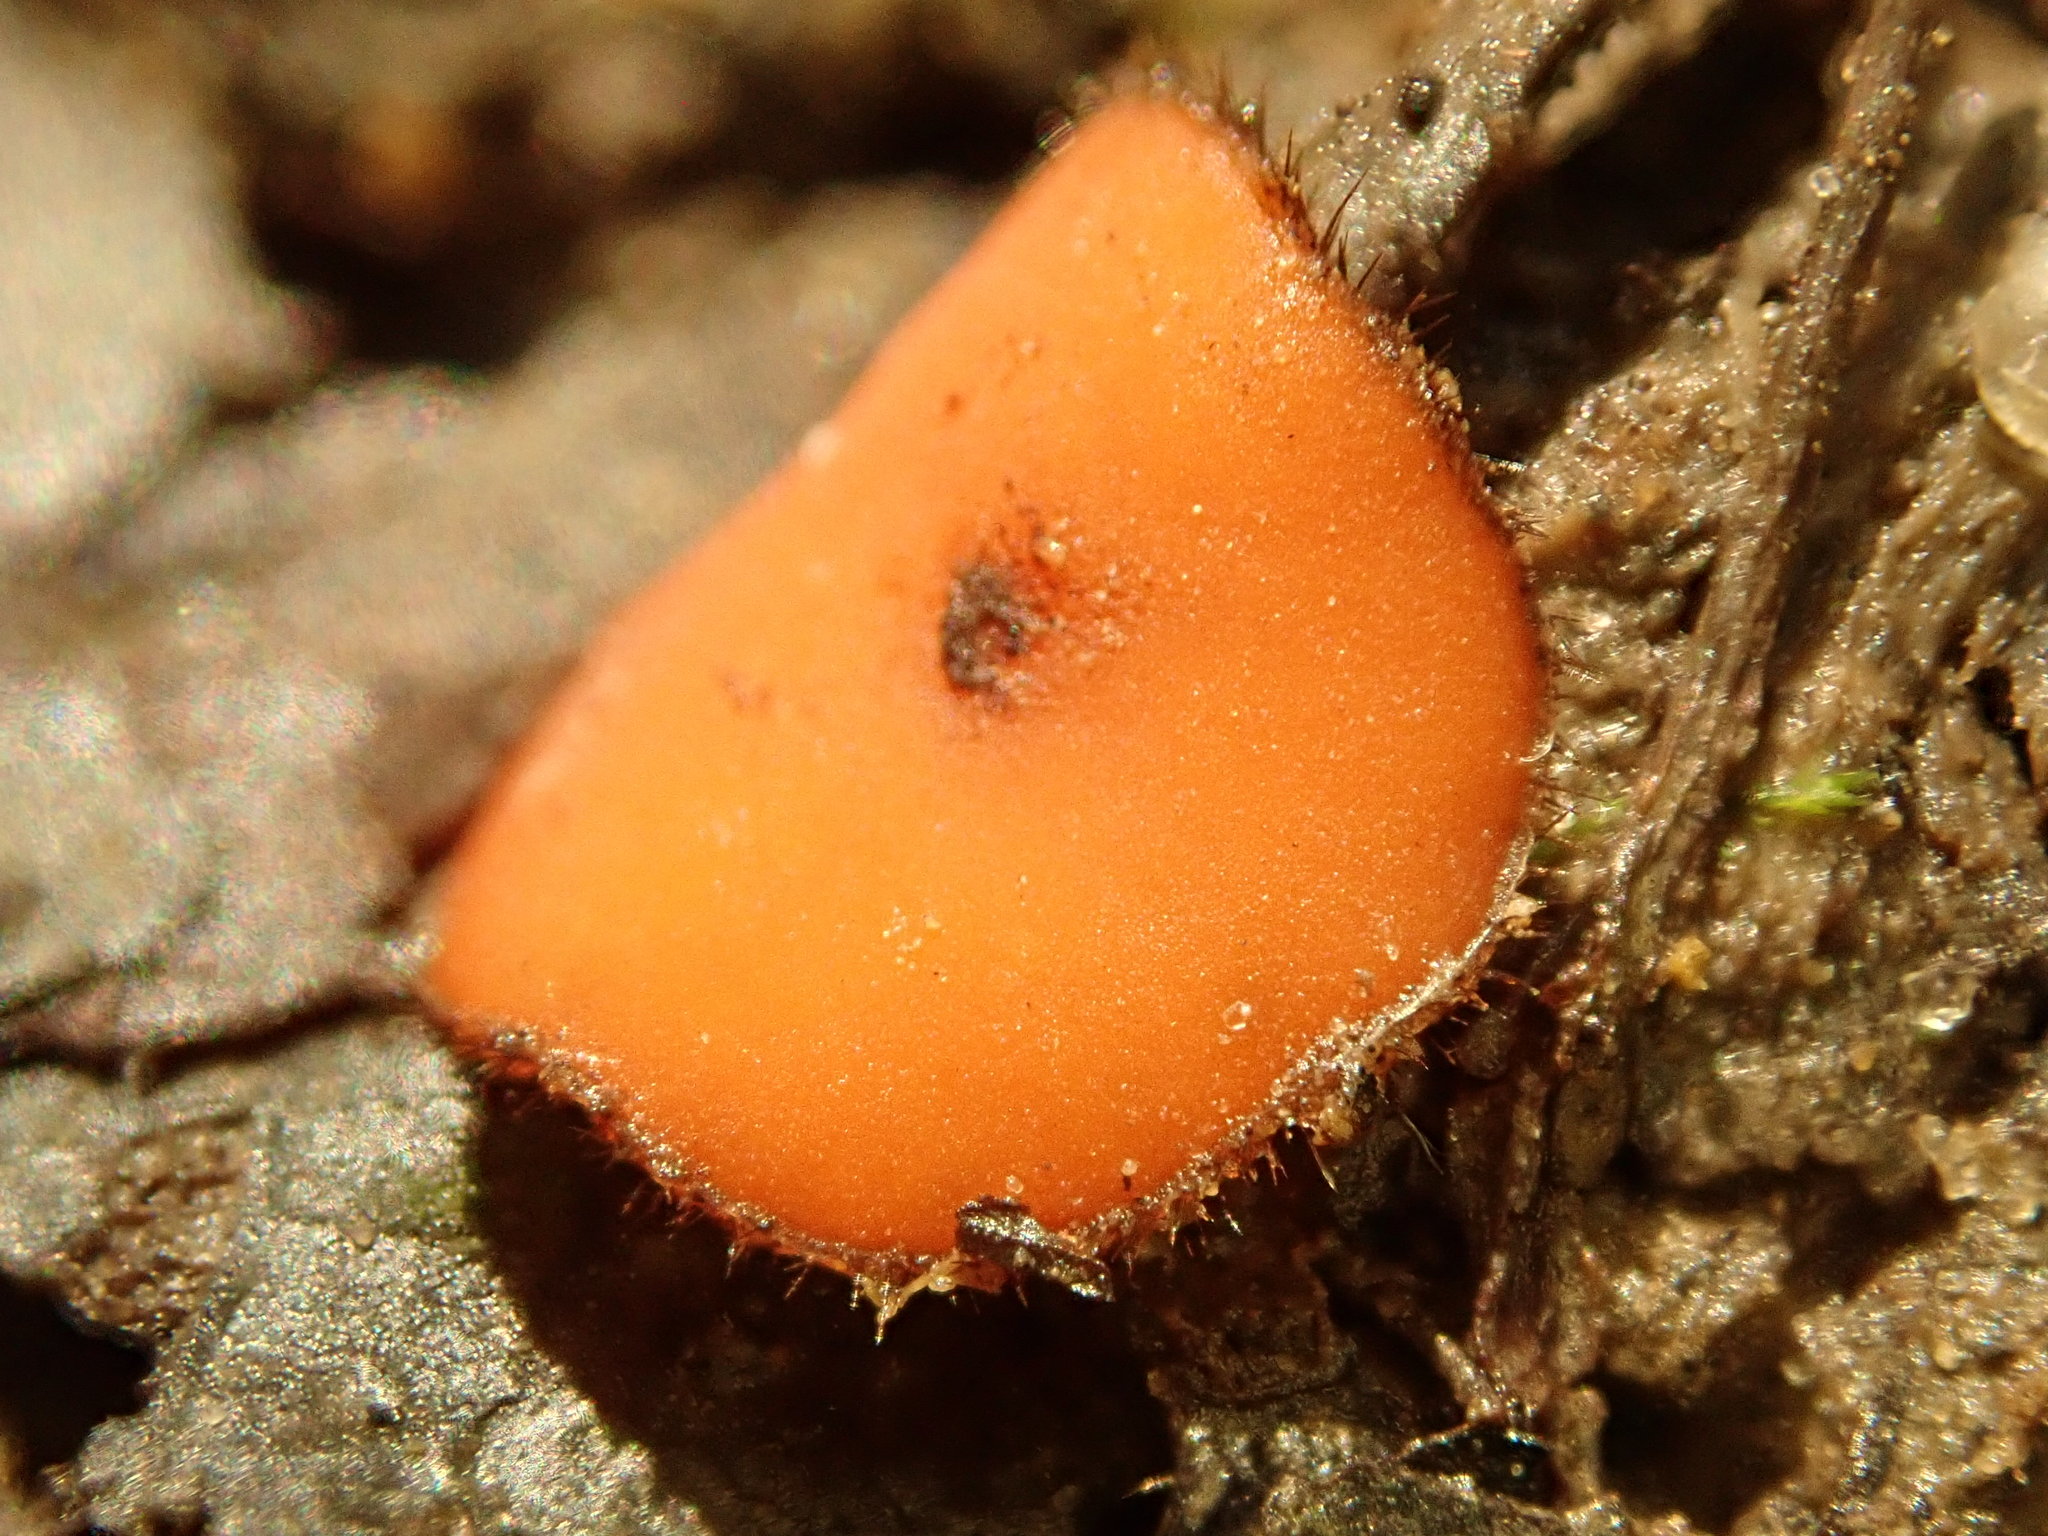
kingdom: Fungi
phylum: Ascomycota
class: Pezizomycetes
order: Pezizales
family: Pyronemataceae
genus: Scutellinia
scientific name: Scutellinia
